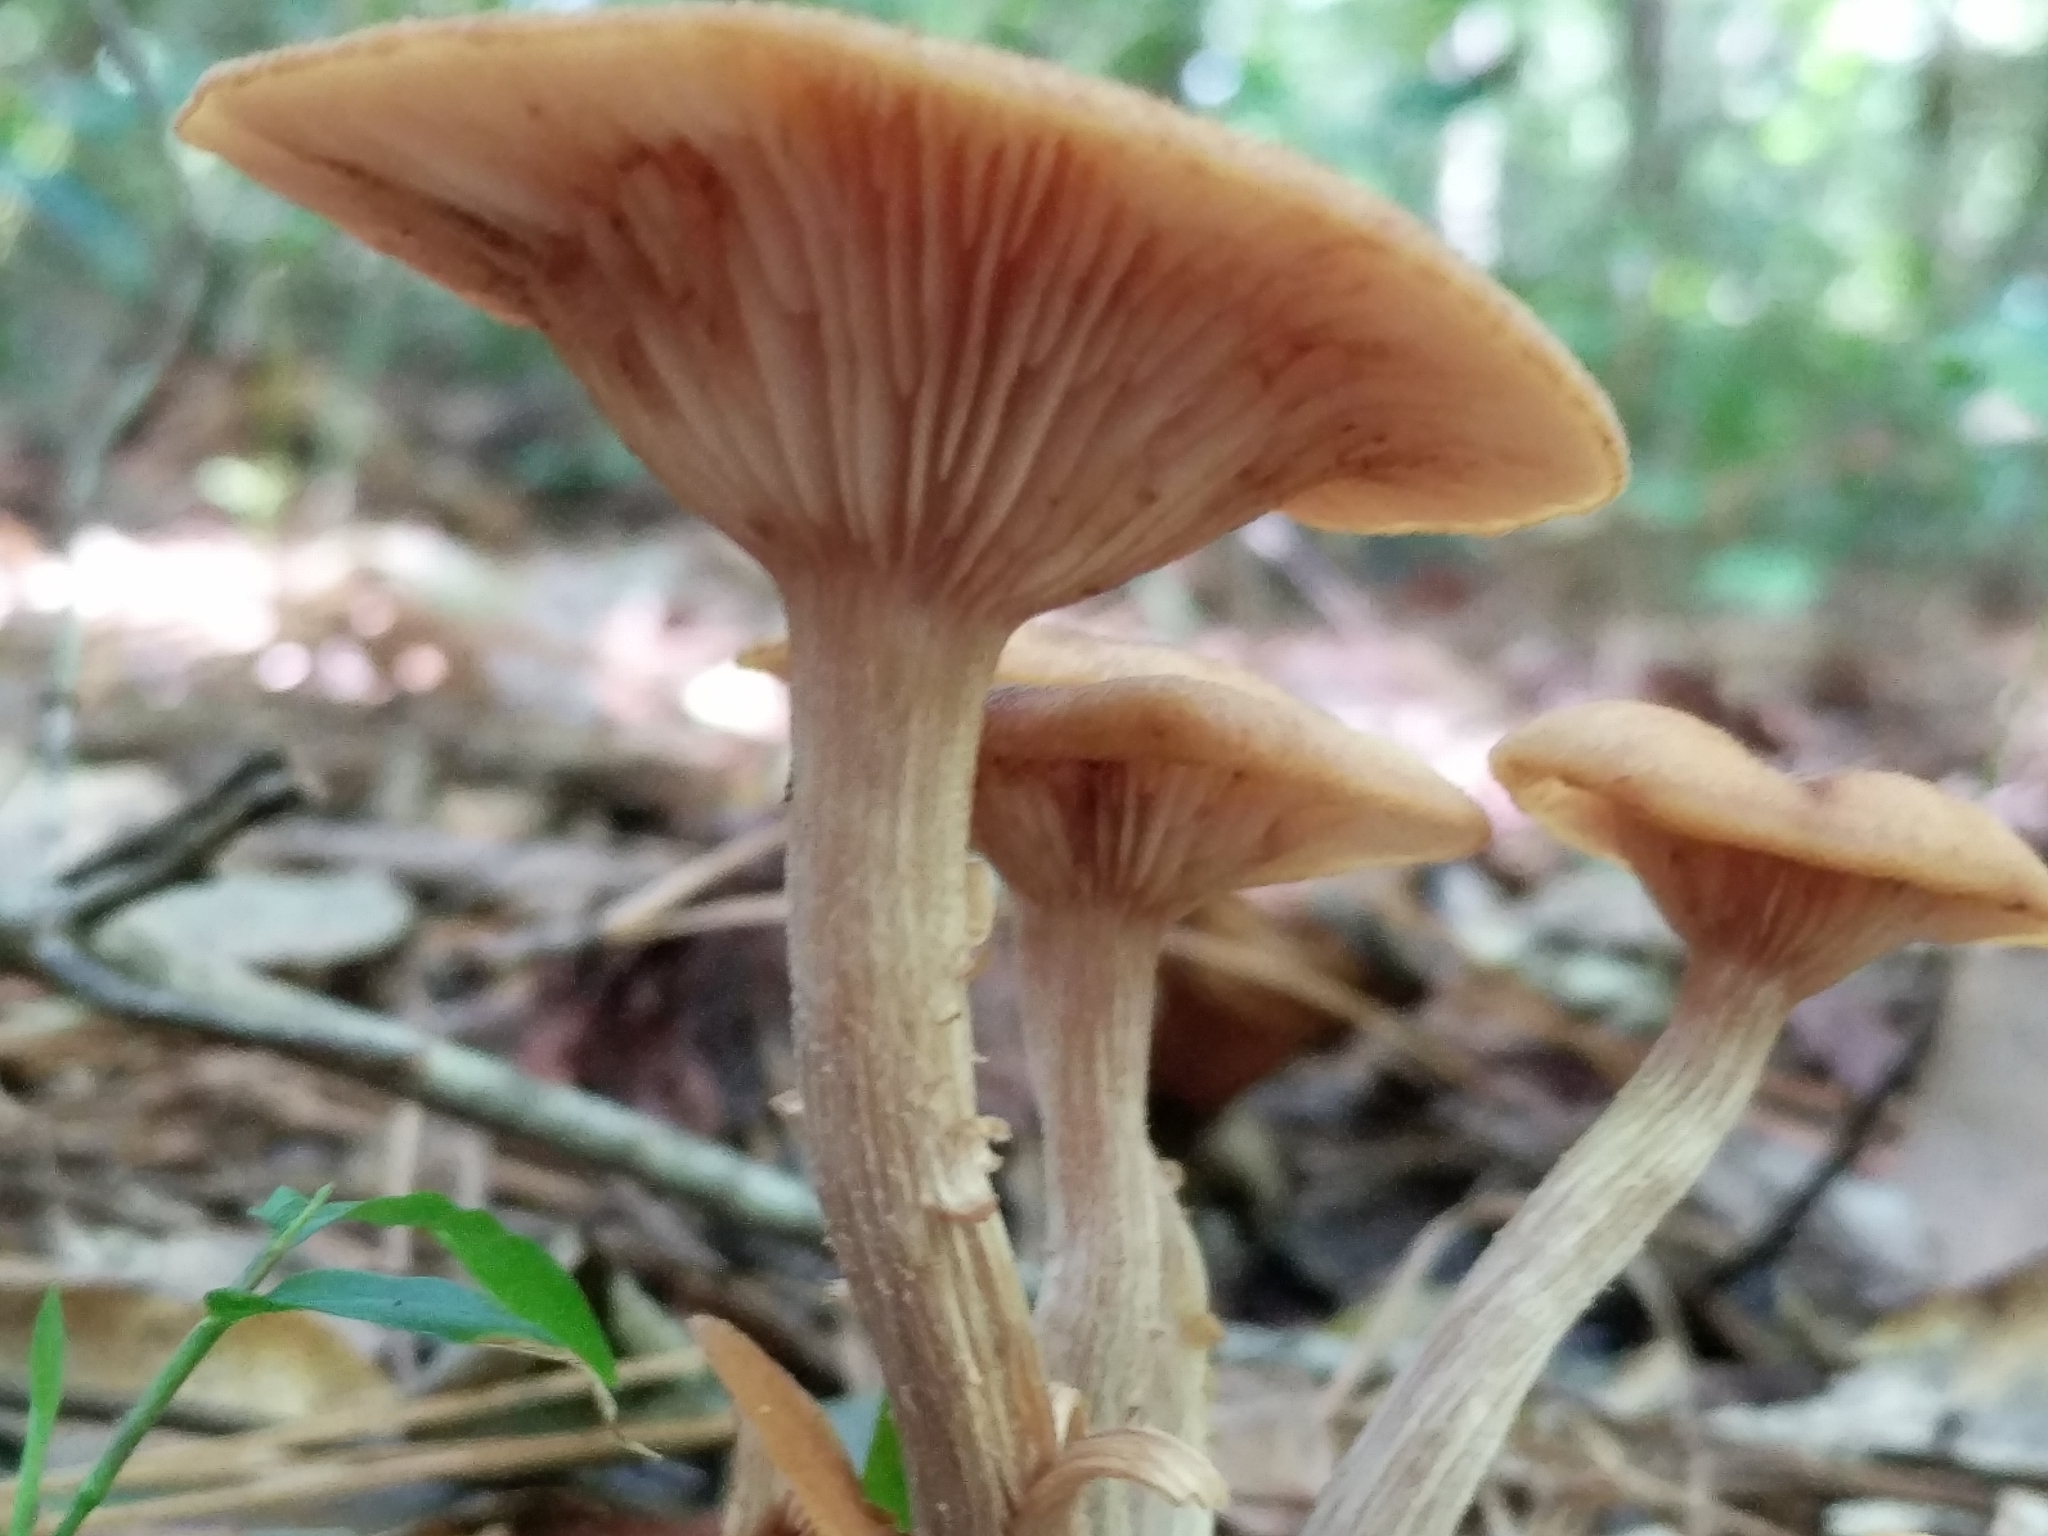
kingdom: Fungi
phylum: Basidiomycota
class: Agaricomycetes
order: Agaricales
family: Physalacriaceae
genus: Desarmillaria
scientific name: Desarmillaria caespitosa
